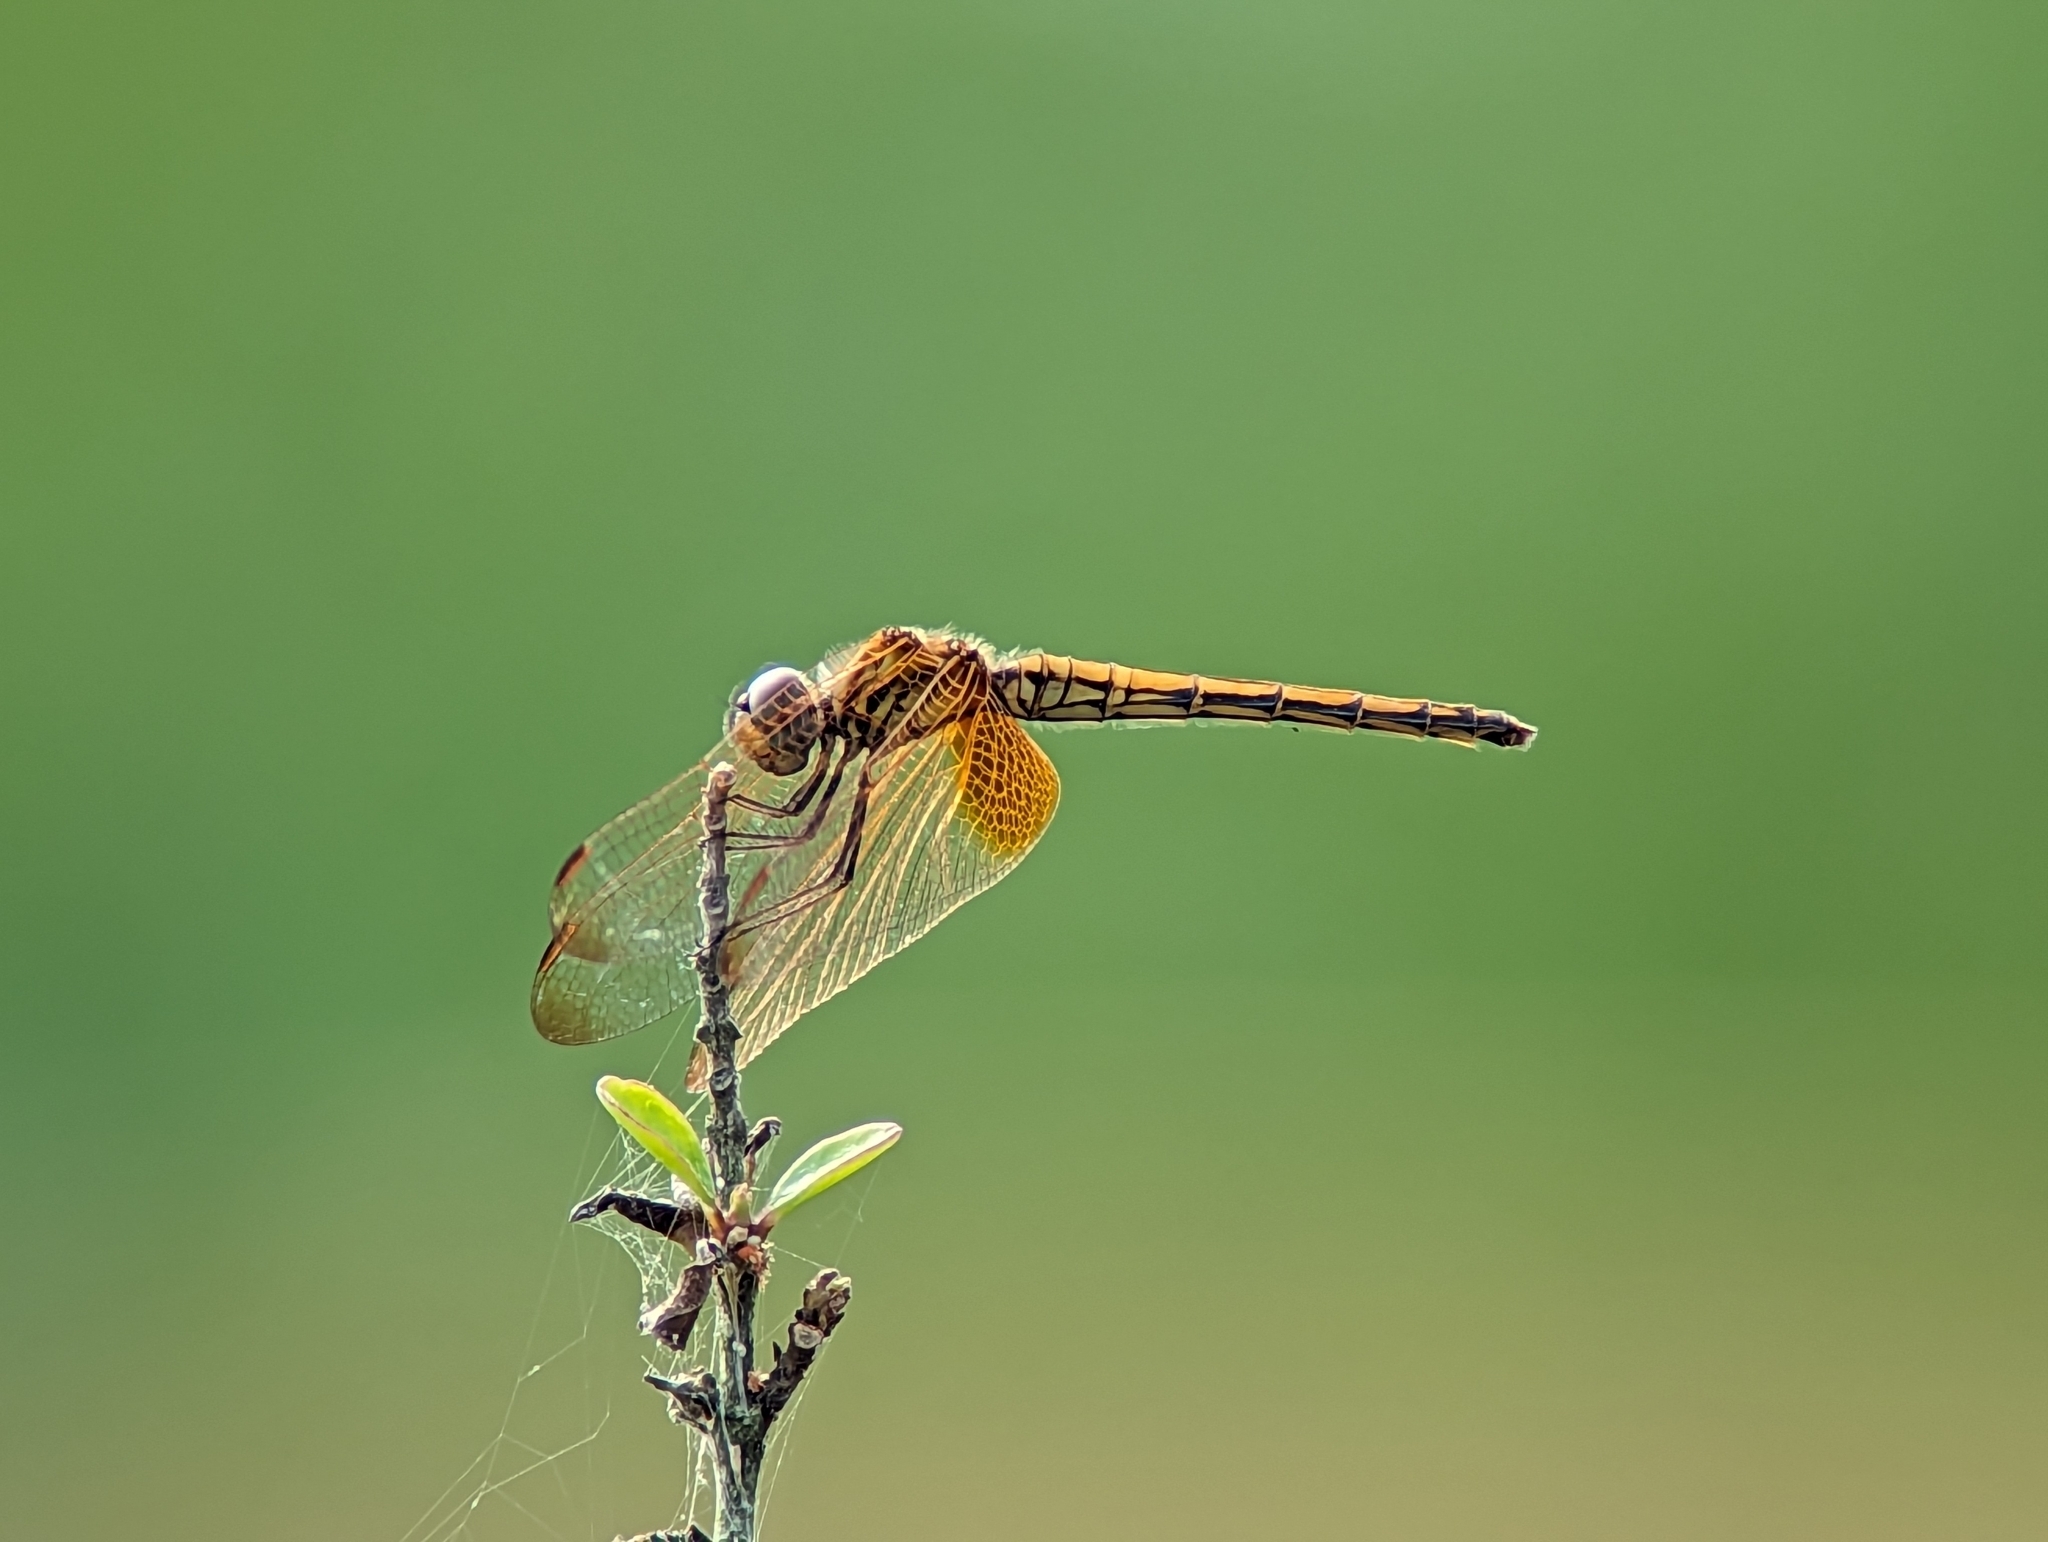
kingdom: Animalia
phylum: Arthropoda
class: Insecta
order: Odonata
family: Libellulidae
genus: Trithemis
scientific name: Trithemis aurora
